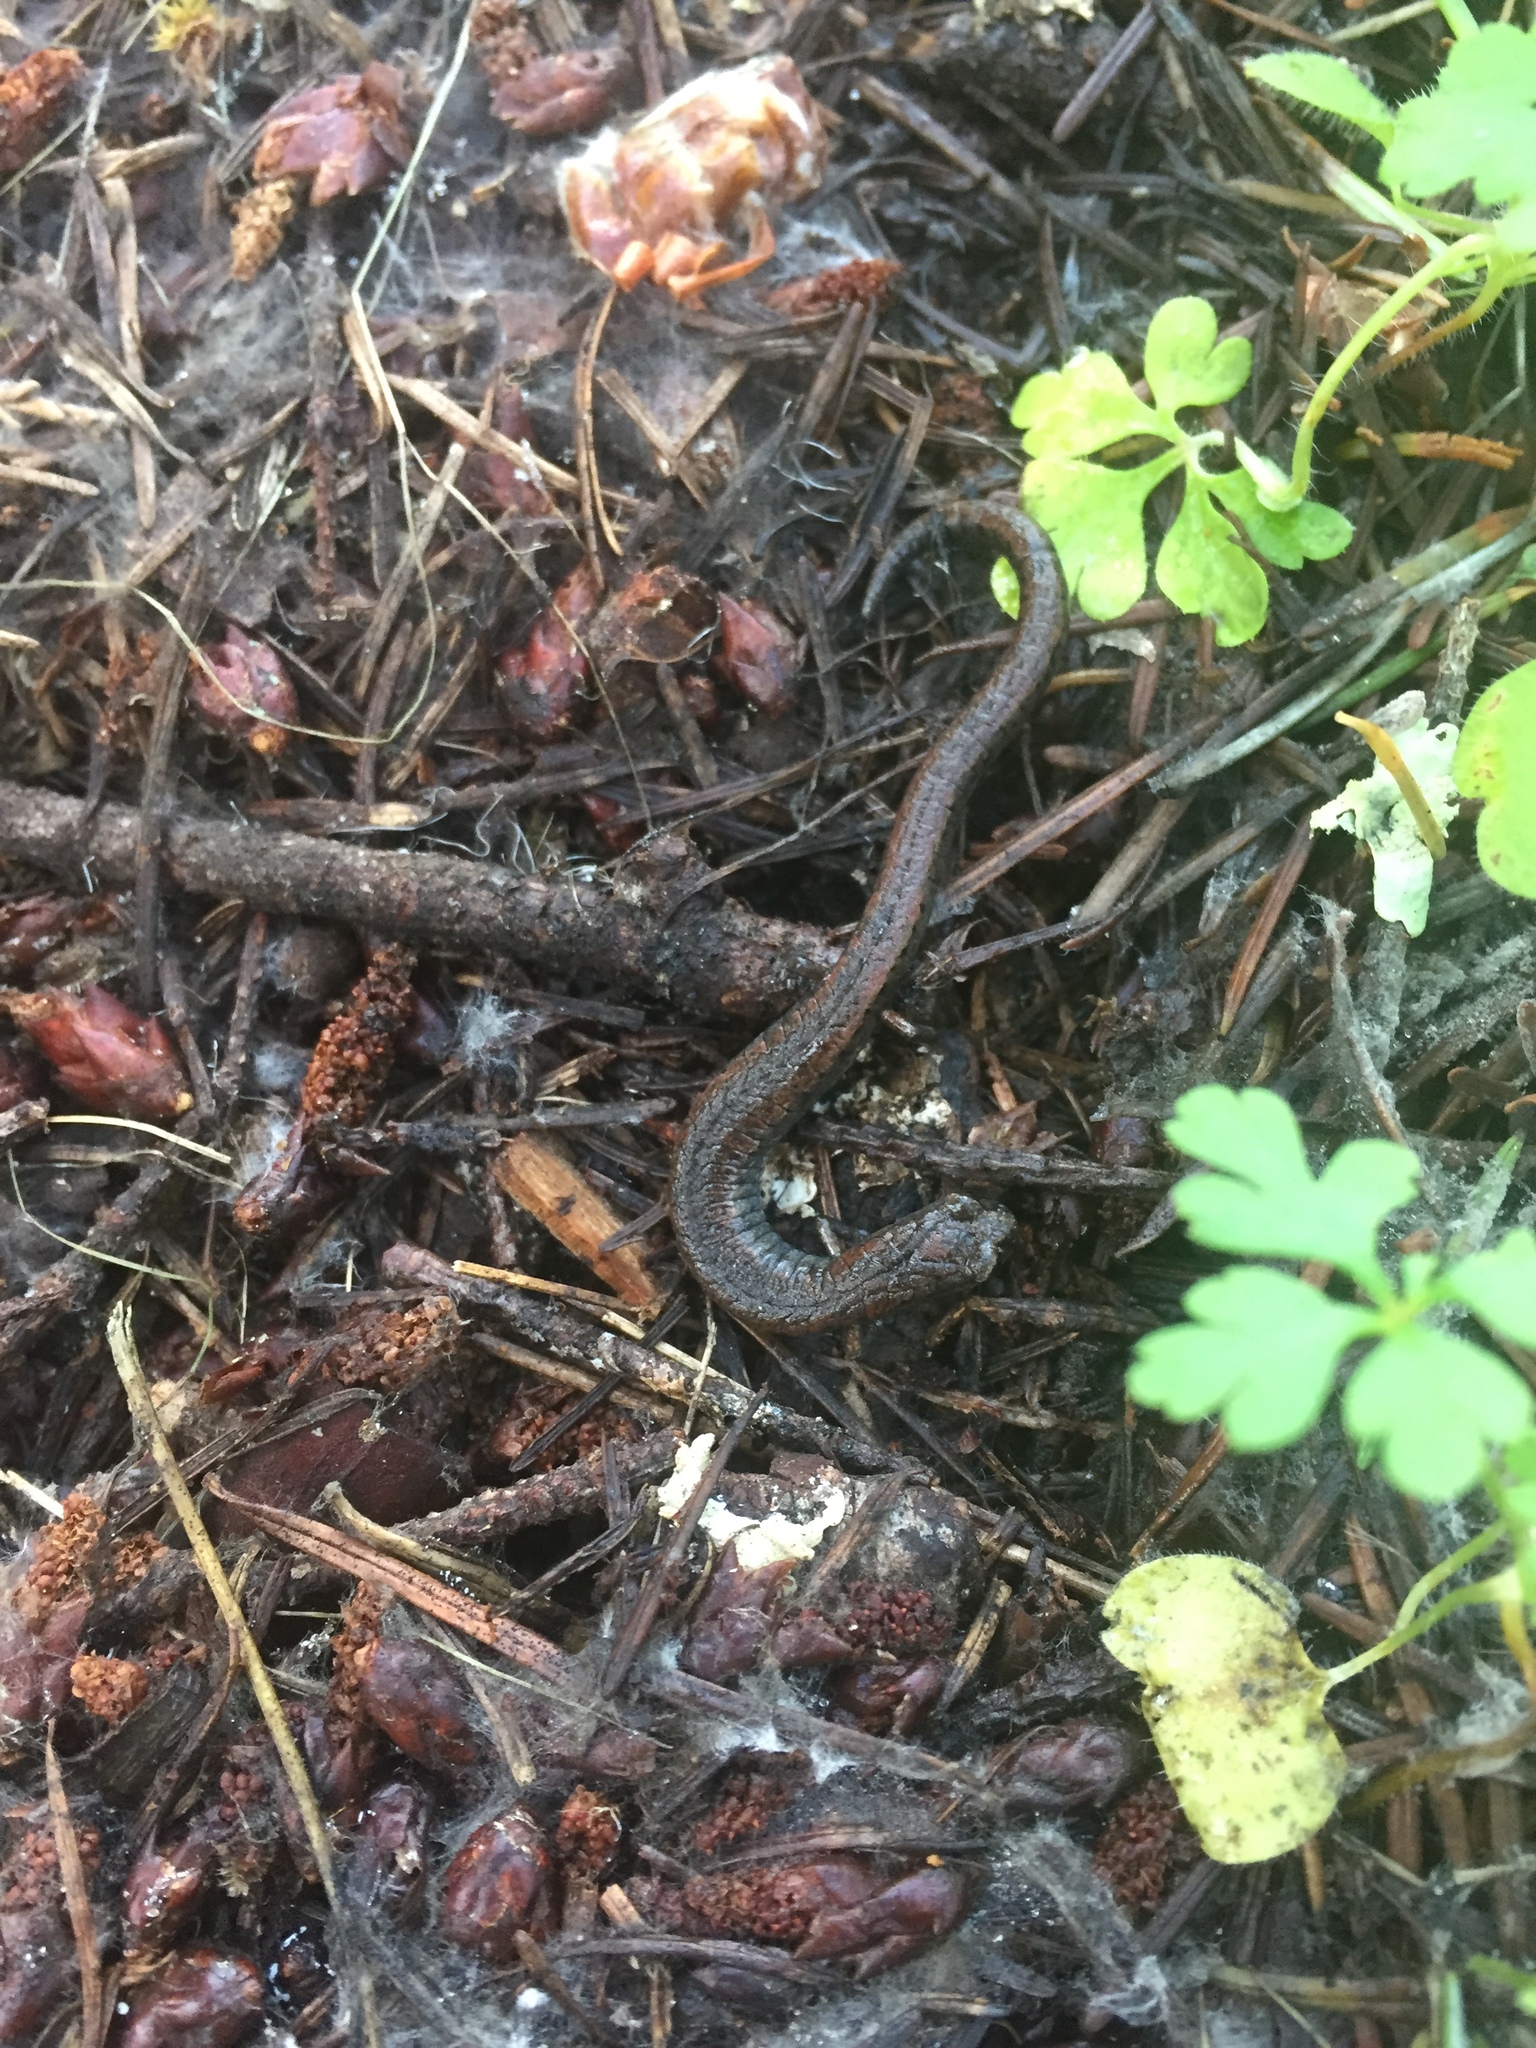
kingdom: Animalia
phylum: Chordata
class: Amphibia
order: Caudata
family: Plethodontidae
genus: Batrachoseps
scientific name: Batrachoseps attenuatus
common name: California slender salamander
